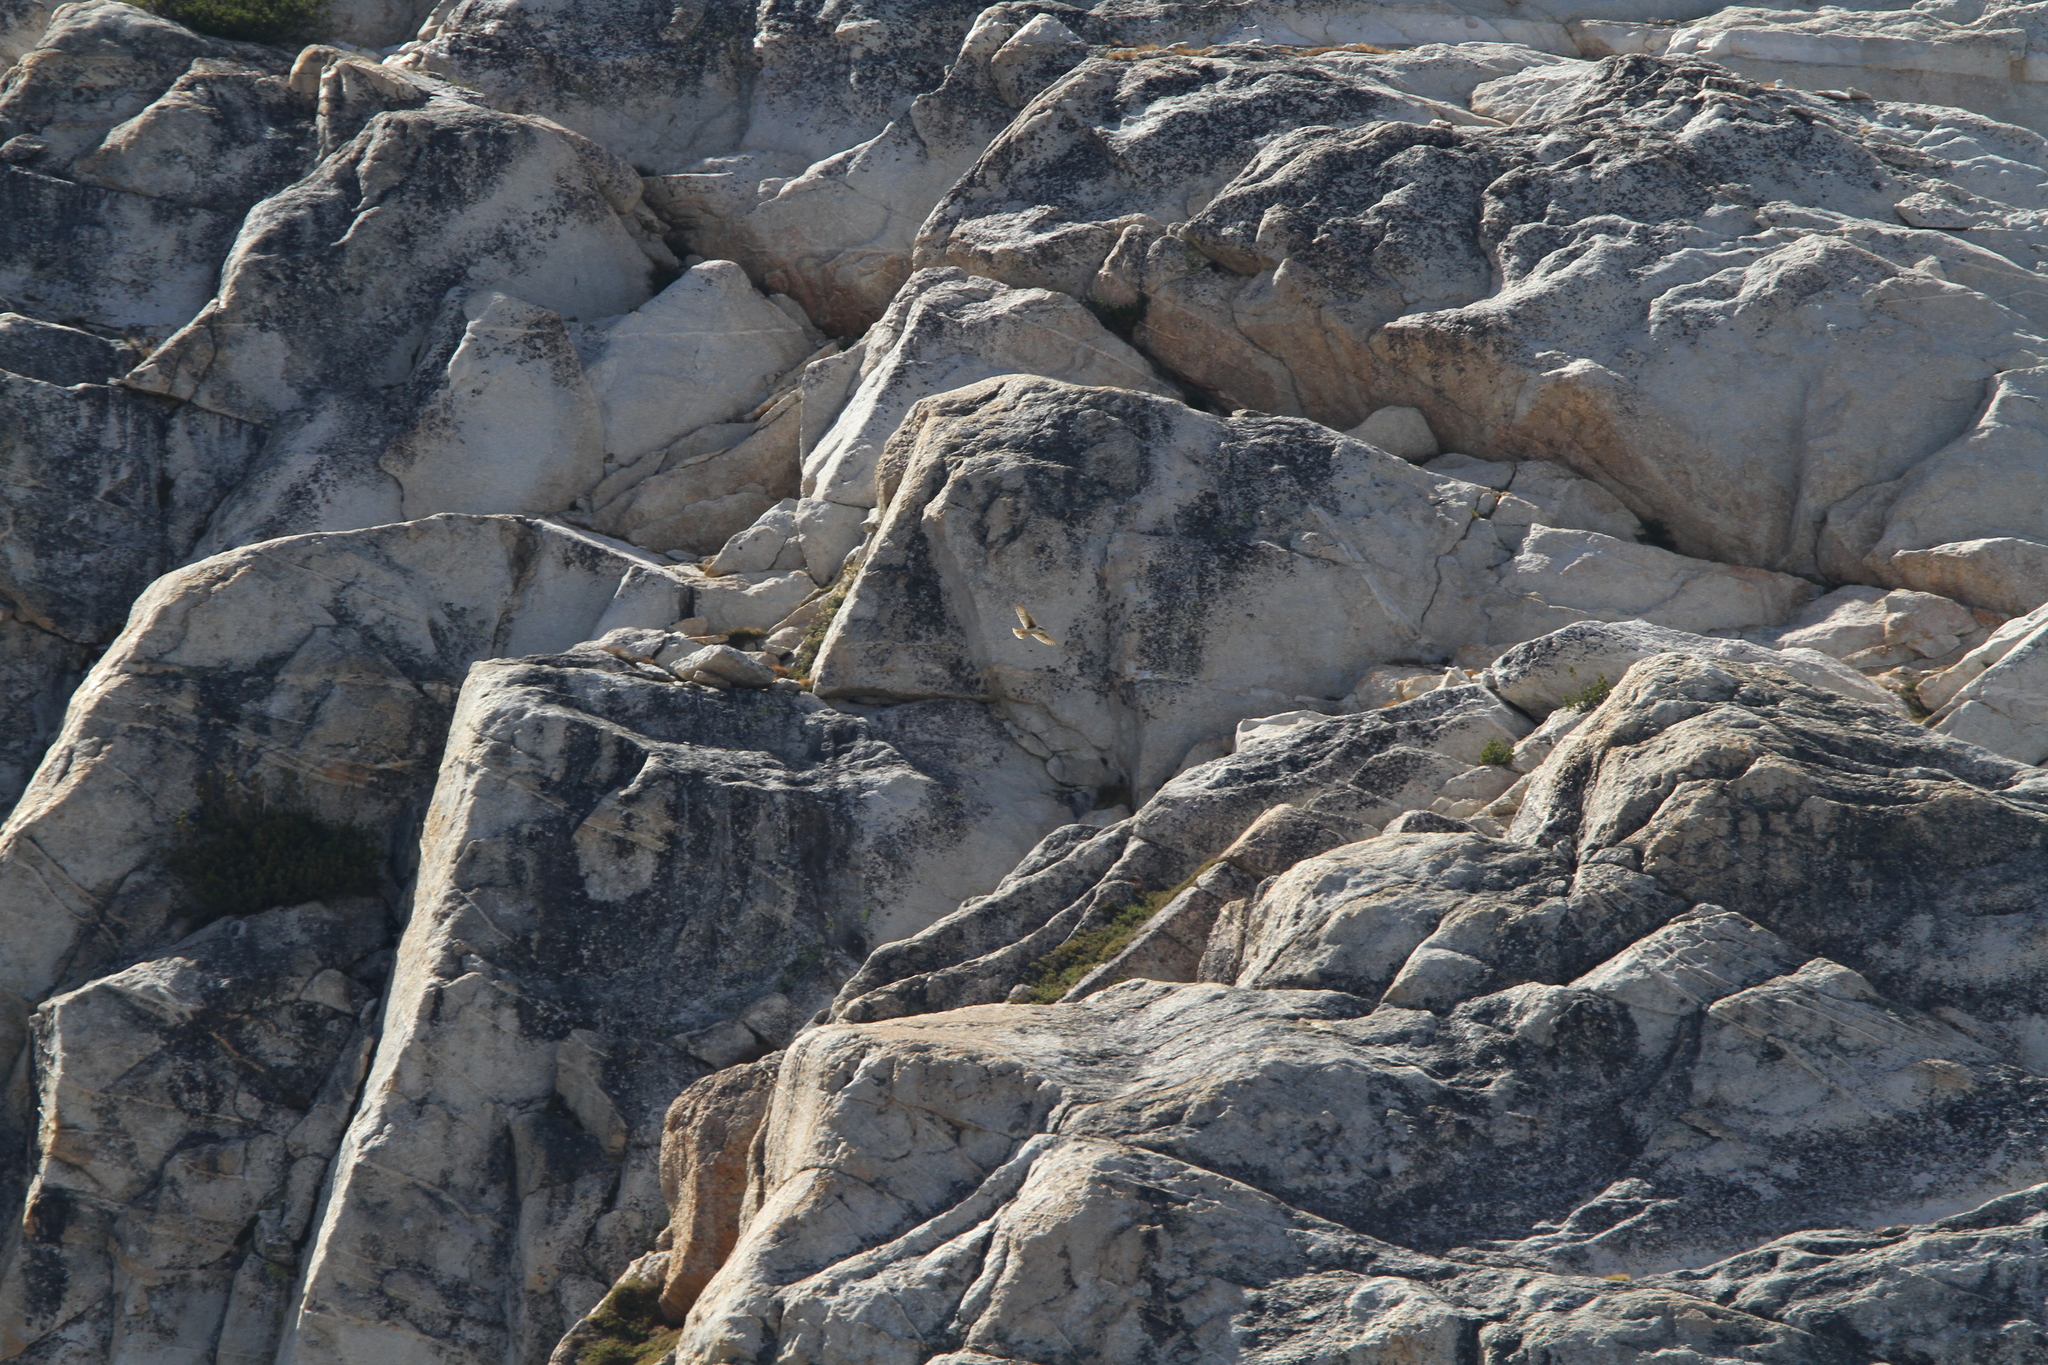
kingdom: Animalia
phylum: Chordata
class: Aves
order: Falconiformes
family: Falconidae
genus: Falco
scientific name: Falco mexicanus
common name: Prairie falcon
